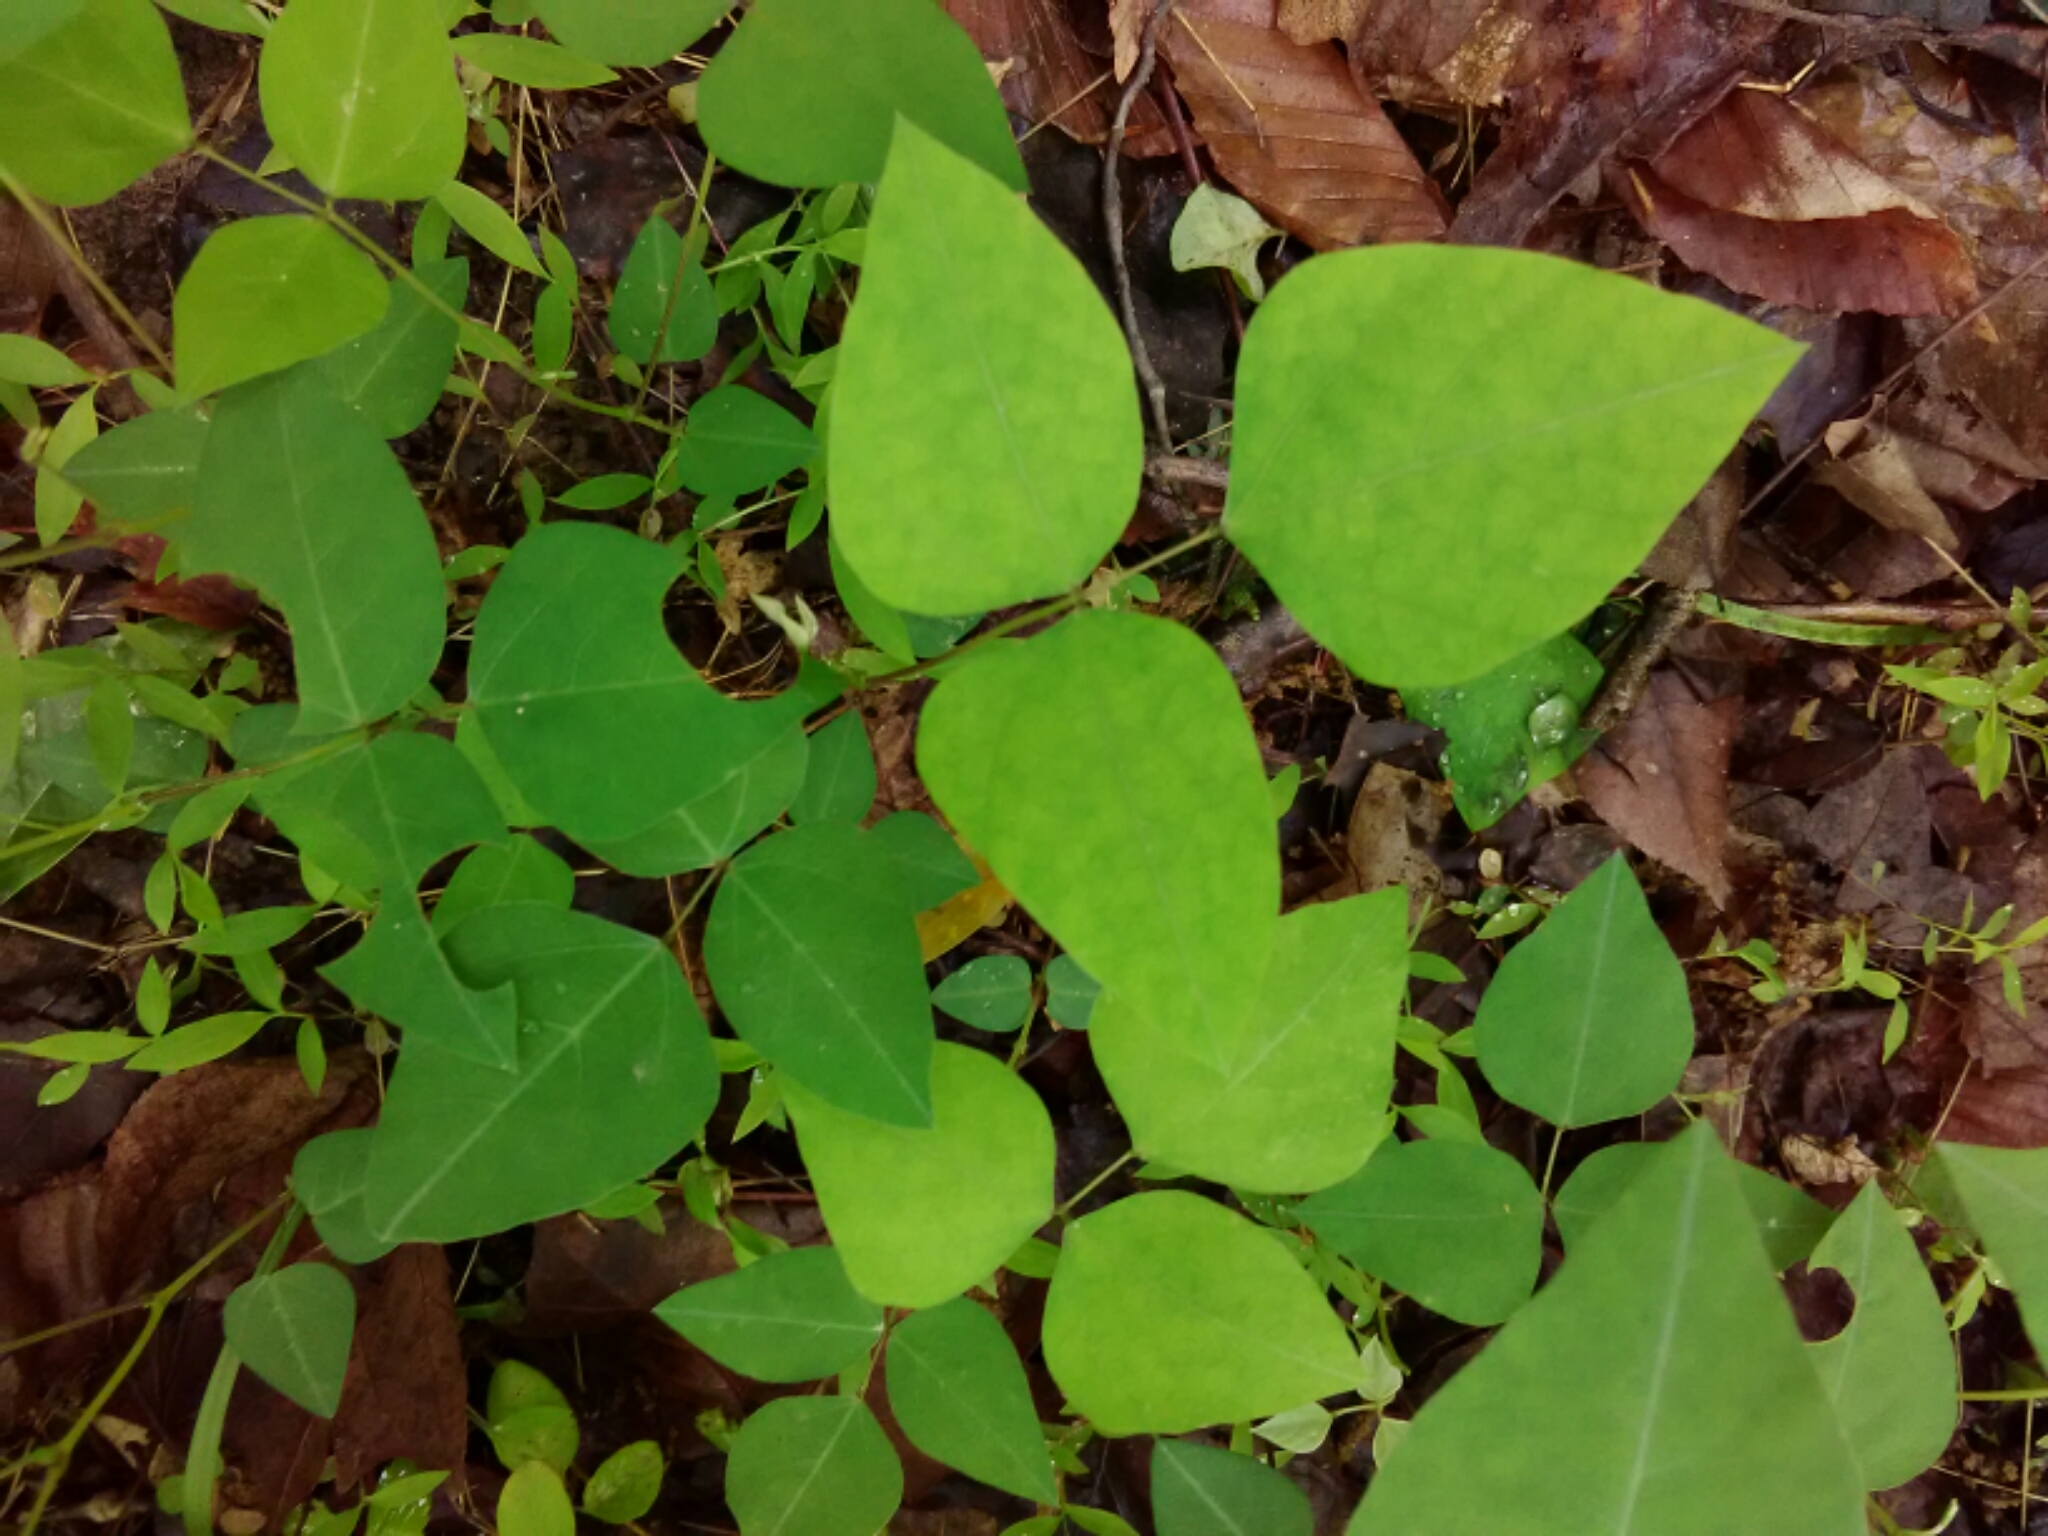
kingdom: Plantae
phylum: Tracheophyta
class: Magnoliopsida
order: Fabales
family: Fabaceae
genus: Amphicarpaea
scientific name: Amphicarpaea bracteata
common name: American hog peanut
